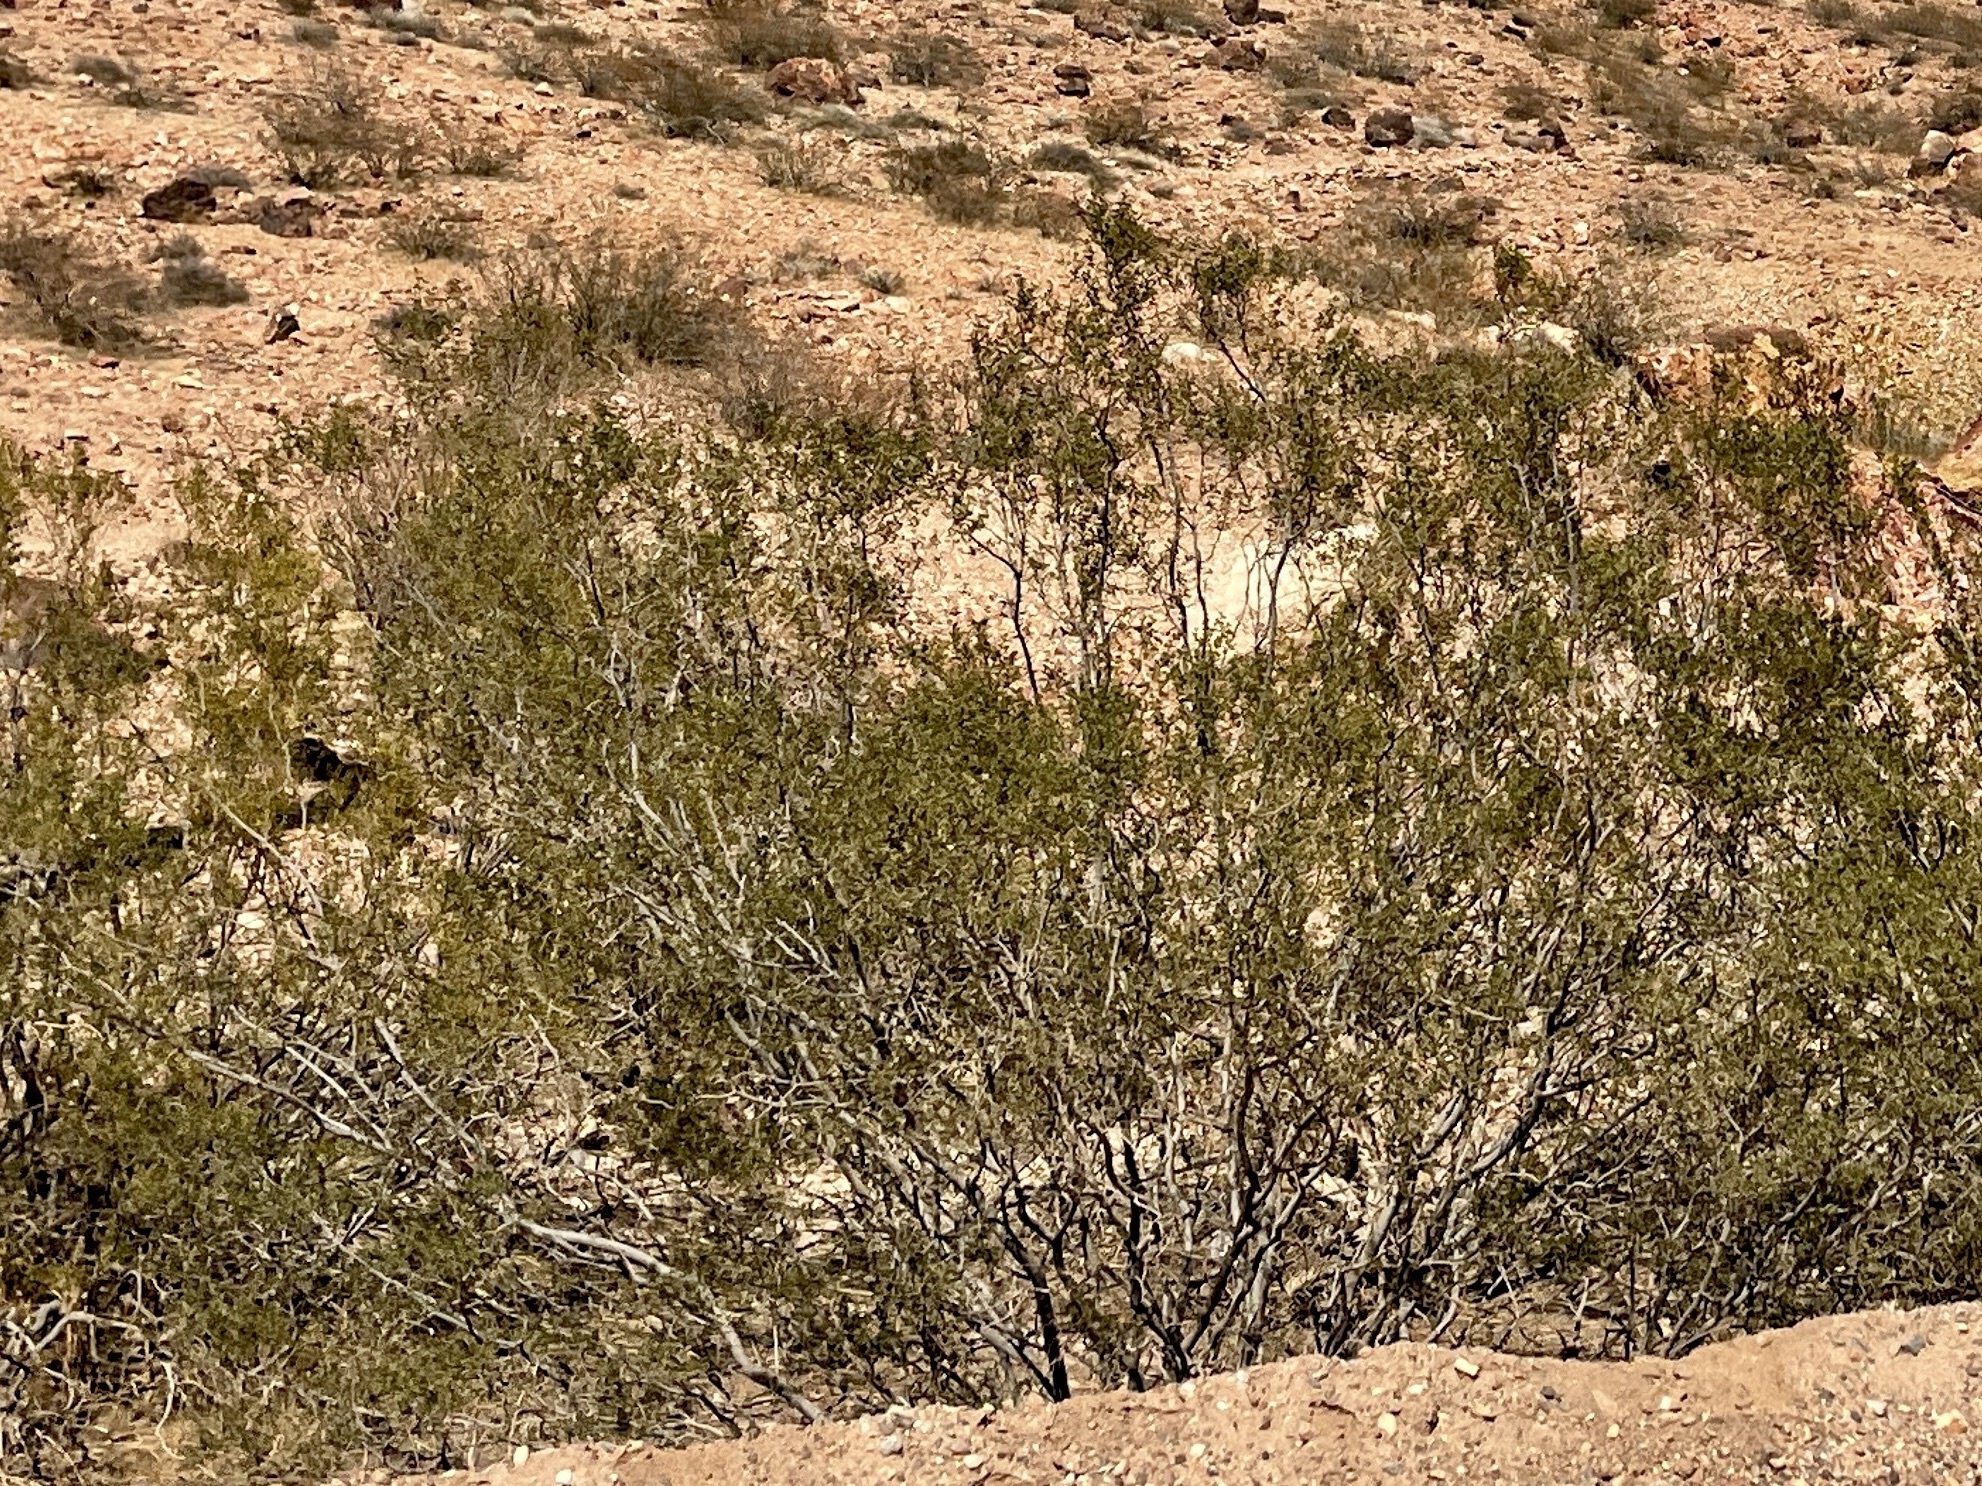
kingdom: Plantae
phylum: Tracheophyta
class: Magnoliopsida
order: Zygophyllales
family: Zygophyllaceae
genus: Larrea
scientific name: Larrea tridentata
